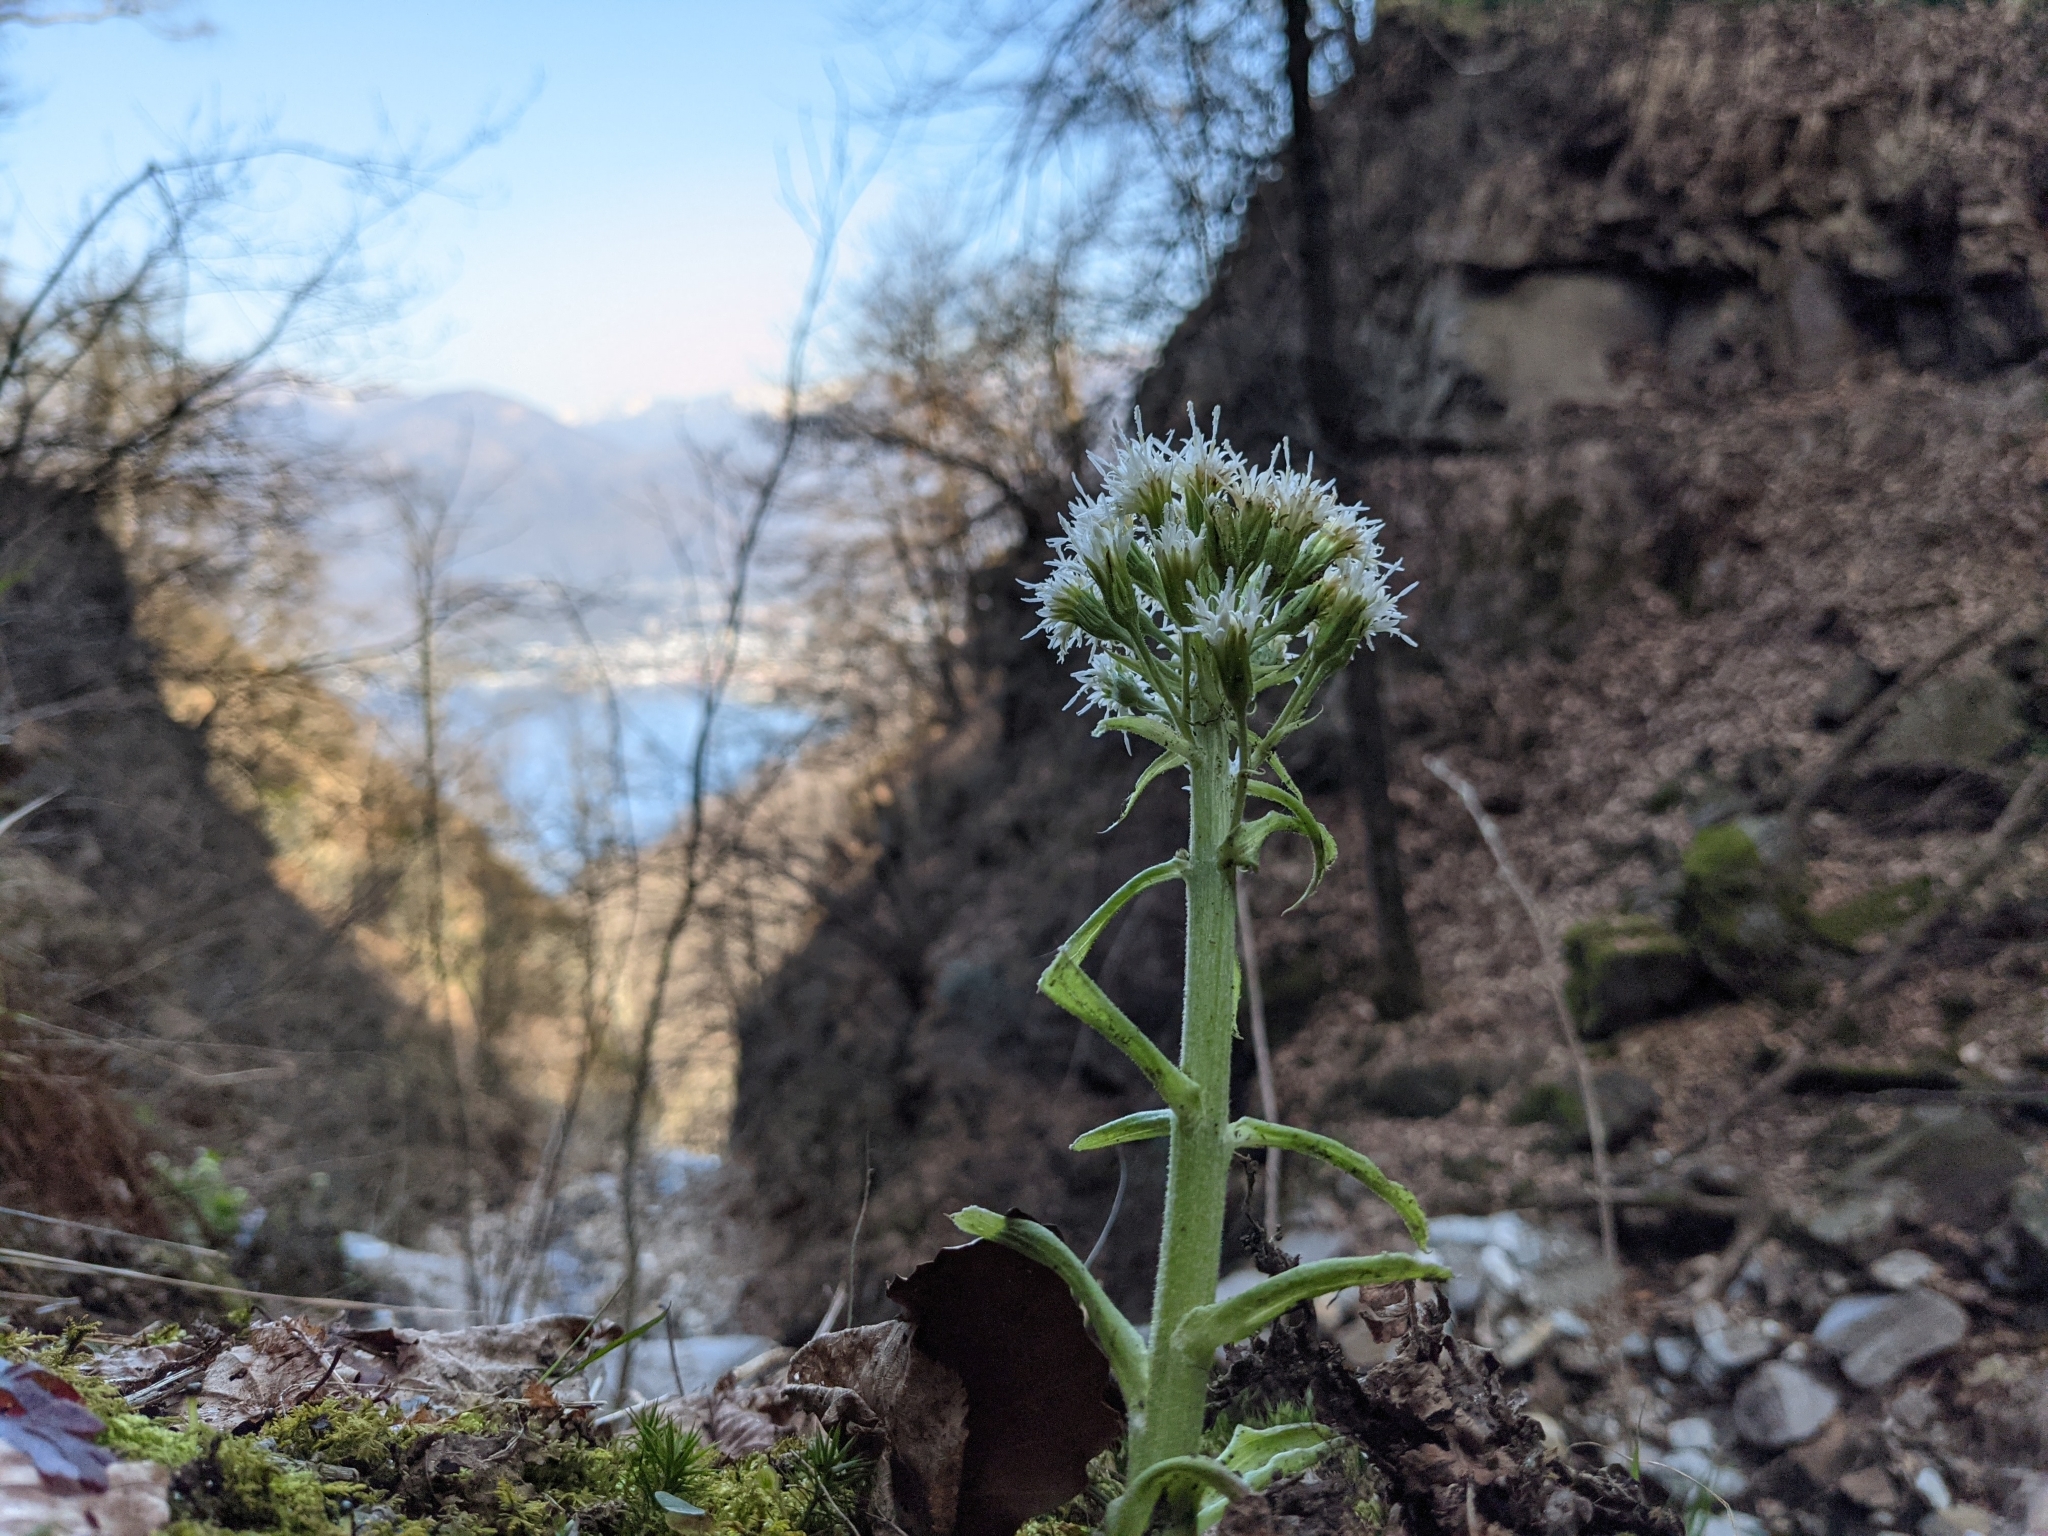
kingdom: Plantae
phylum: Tracheophyta
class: Magnoliopsida
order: Asterales
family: Asteraceae
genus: Petasites
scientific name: Petasites albus
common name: White butterbur
